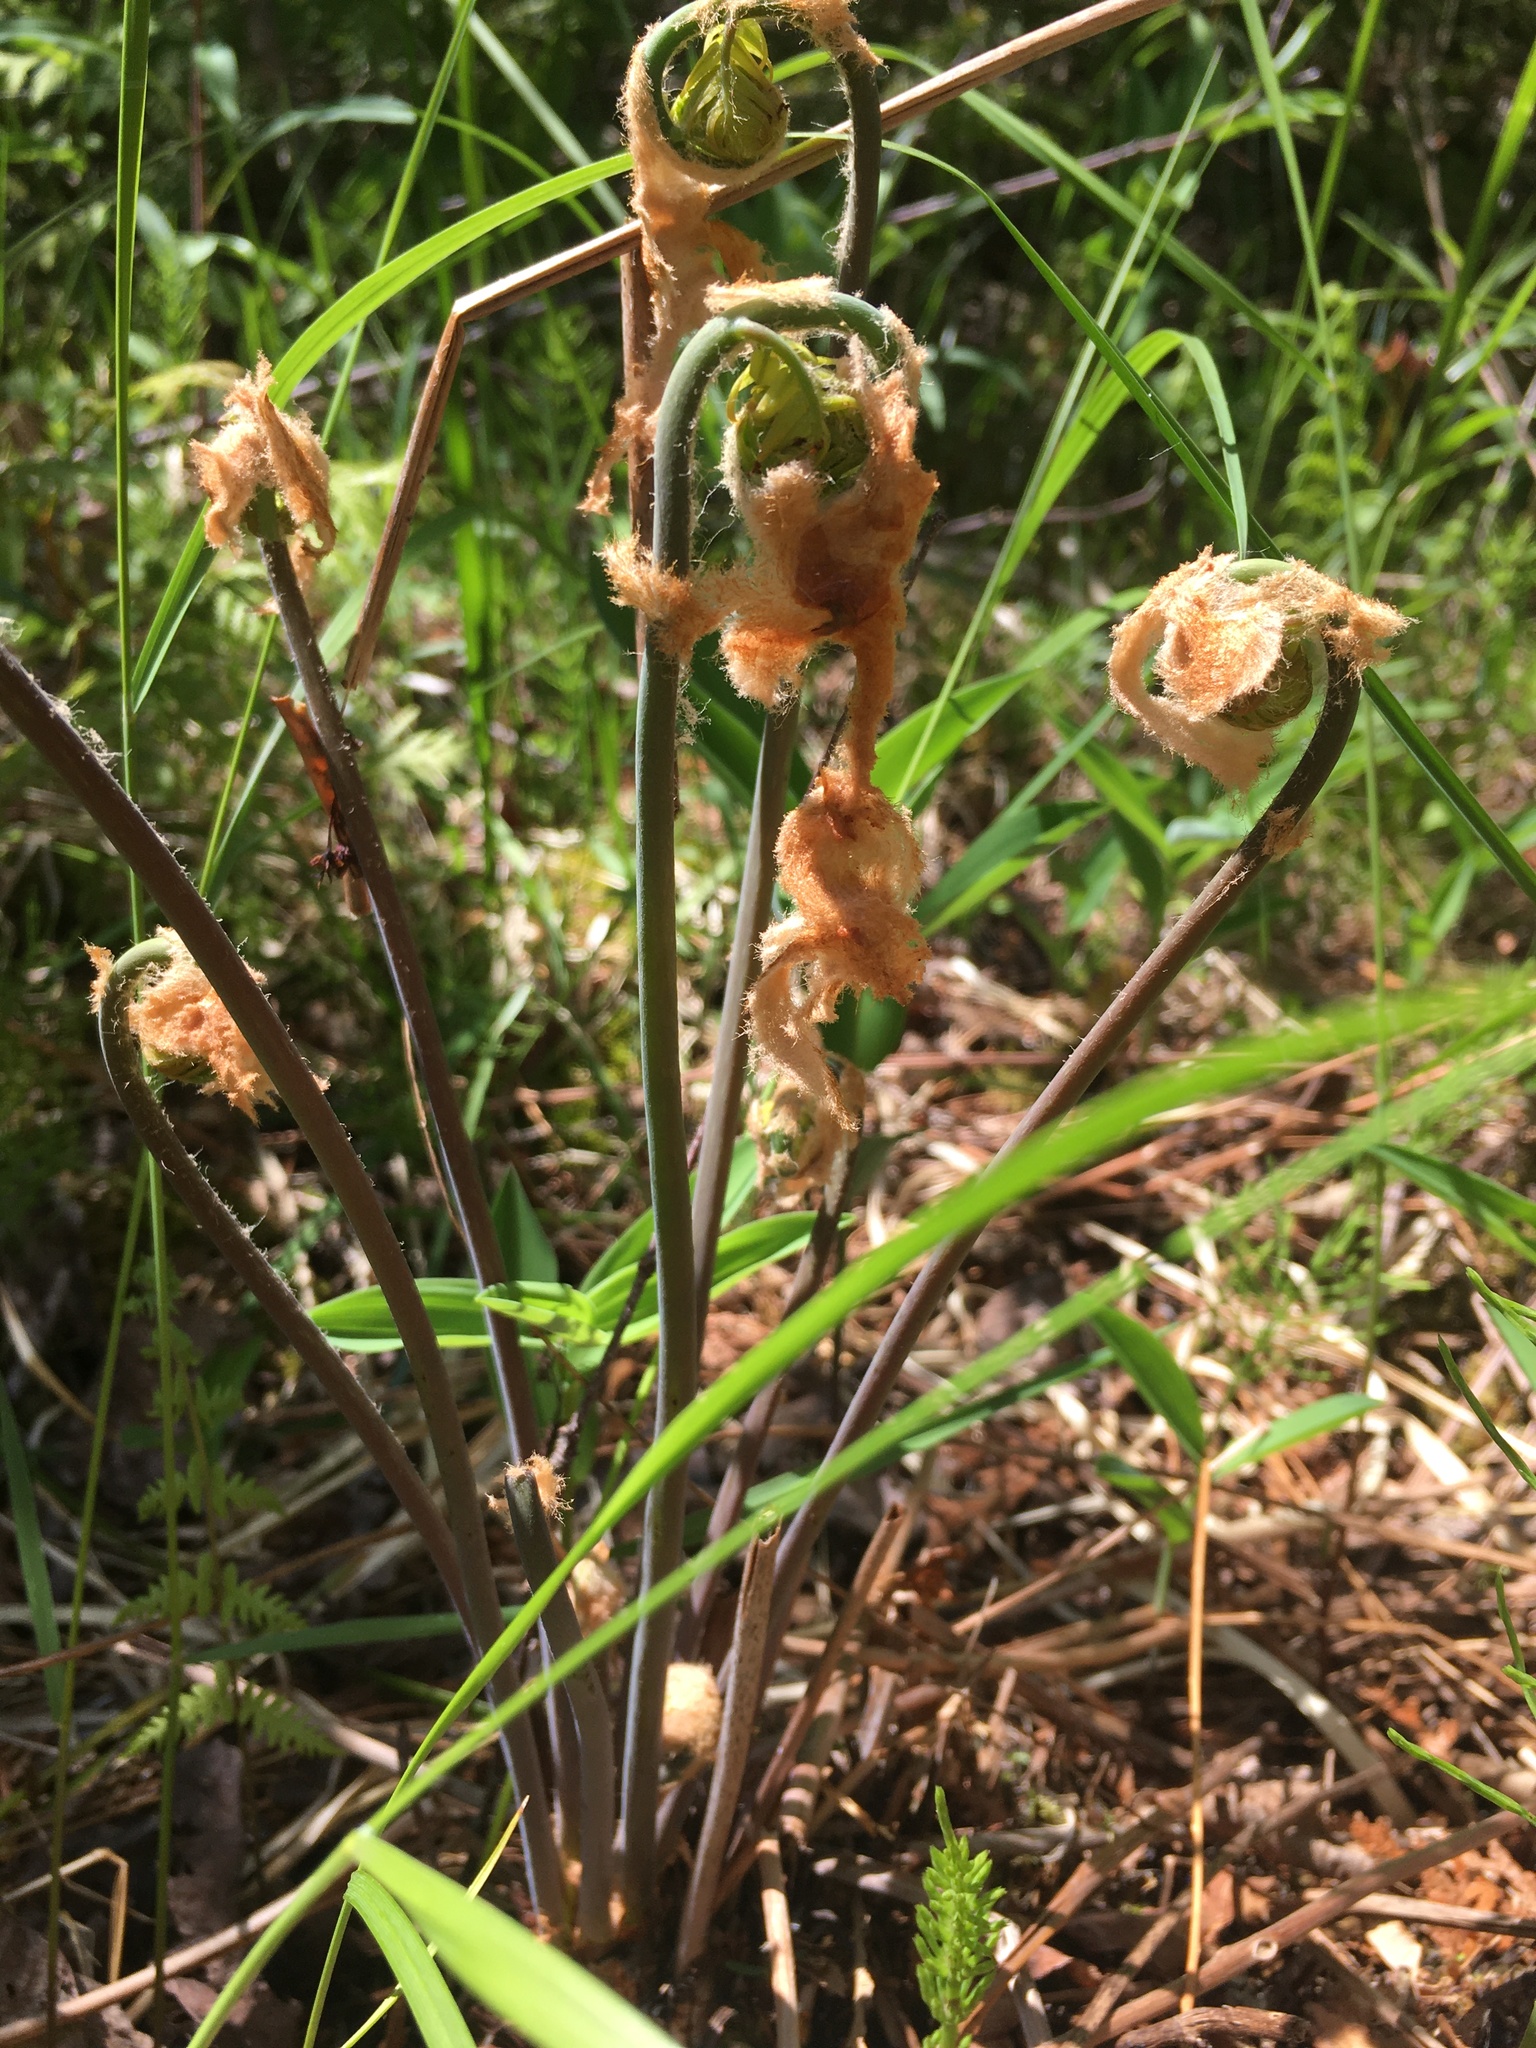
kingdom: Plantae
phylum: Tracheophyta
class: Polypodiopsida
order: Osmundales
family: Osmundaceae
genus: Osmunda
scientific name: Osmunda spectabilis
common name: American royal fern
